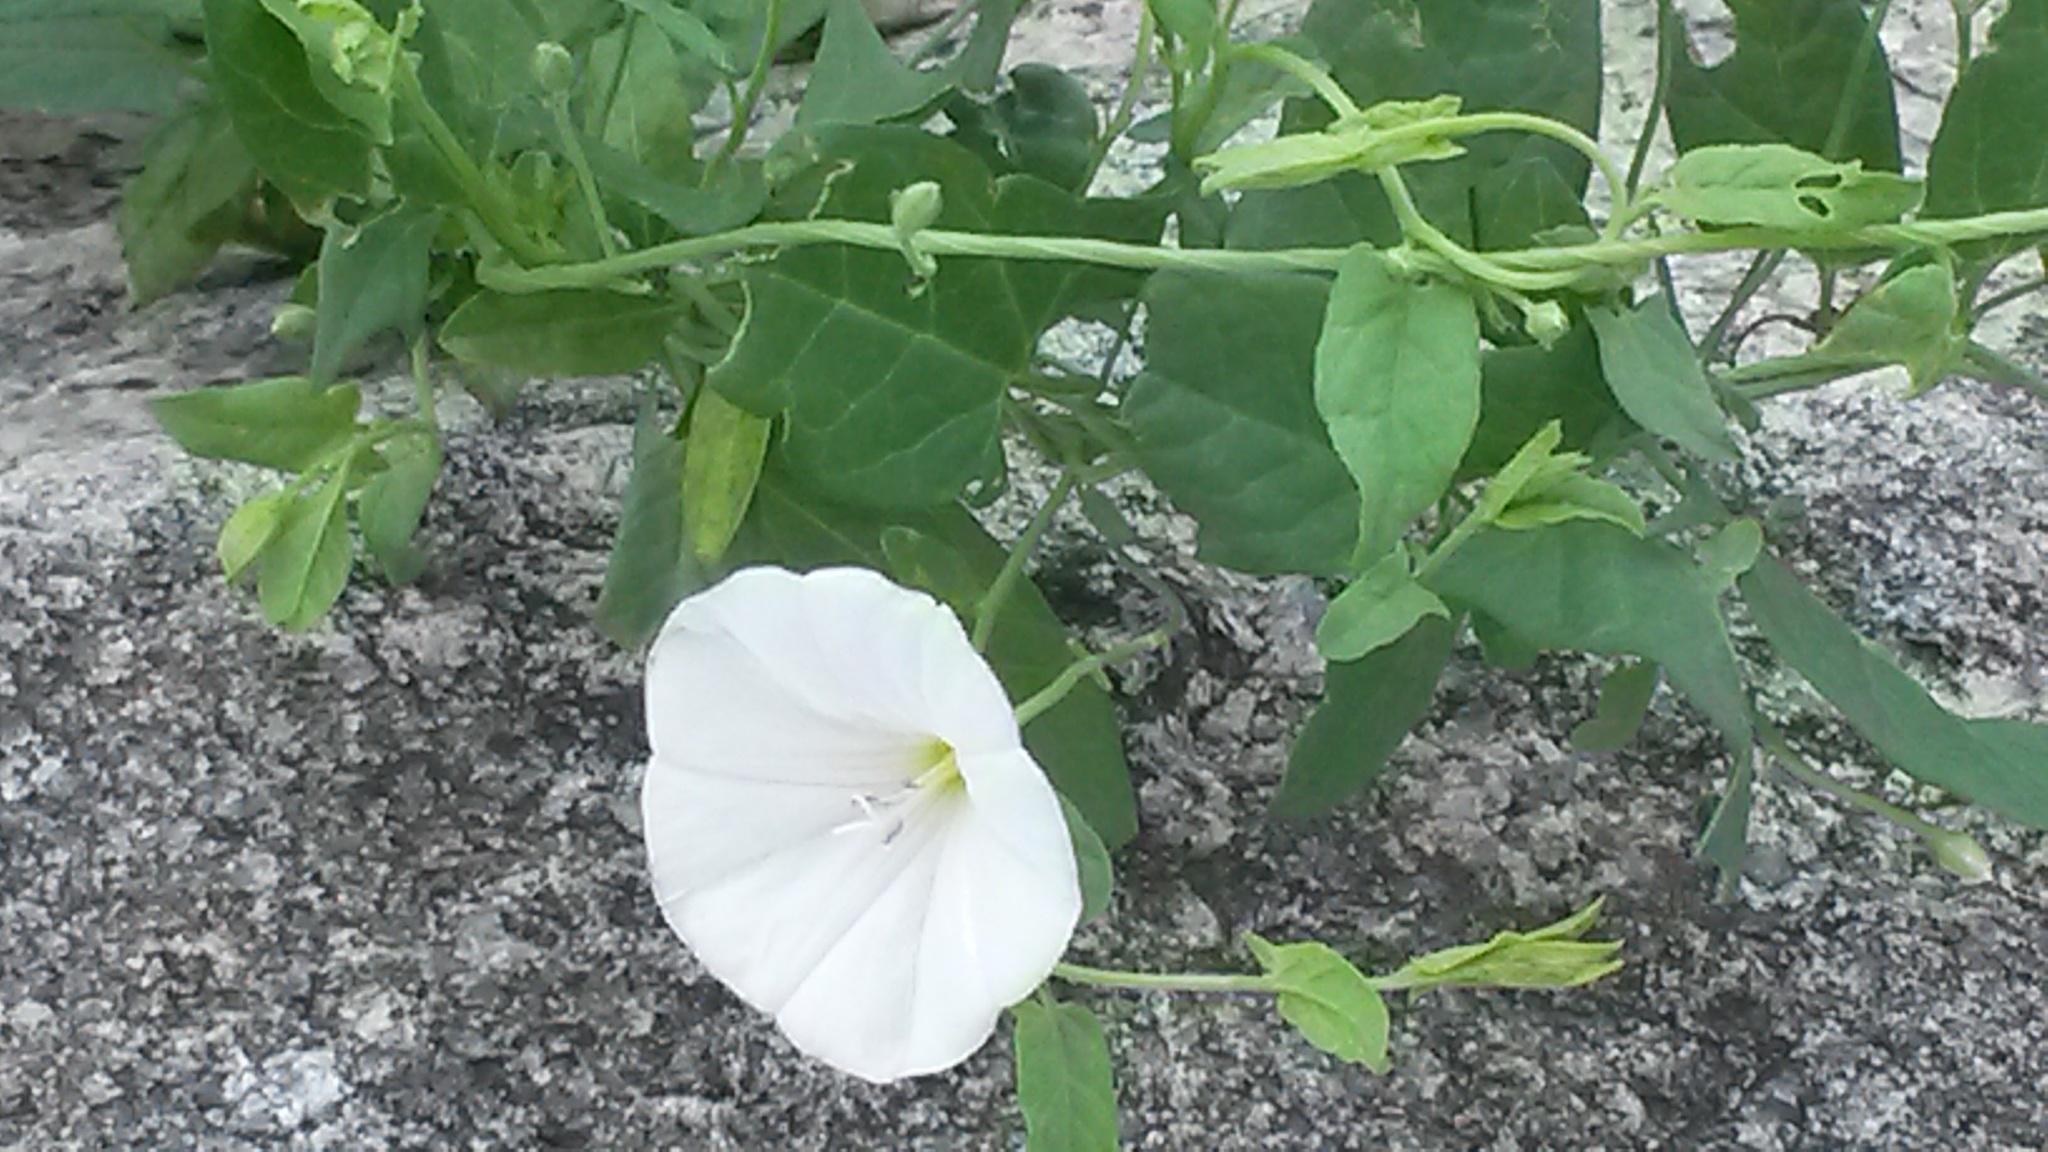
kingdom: Plantae
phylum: Tracheophyta
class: Magnoliopsida
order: Solanales
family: Convolvulaceae
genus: Convolvulus
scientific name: Convolvulus arvensis
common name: Field bindweed
